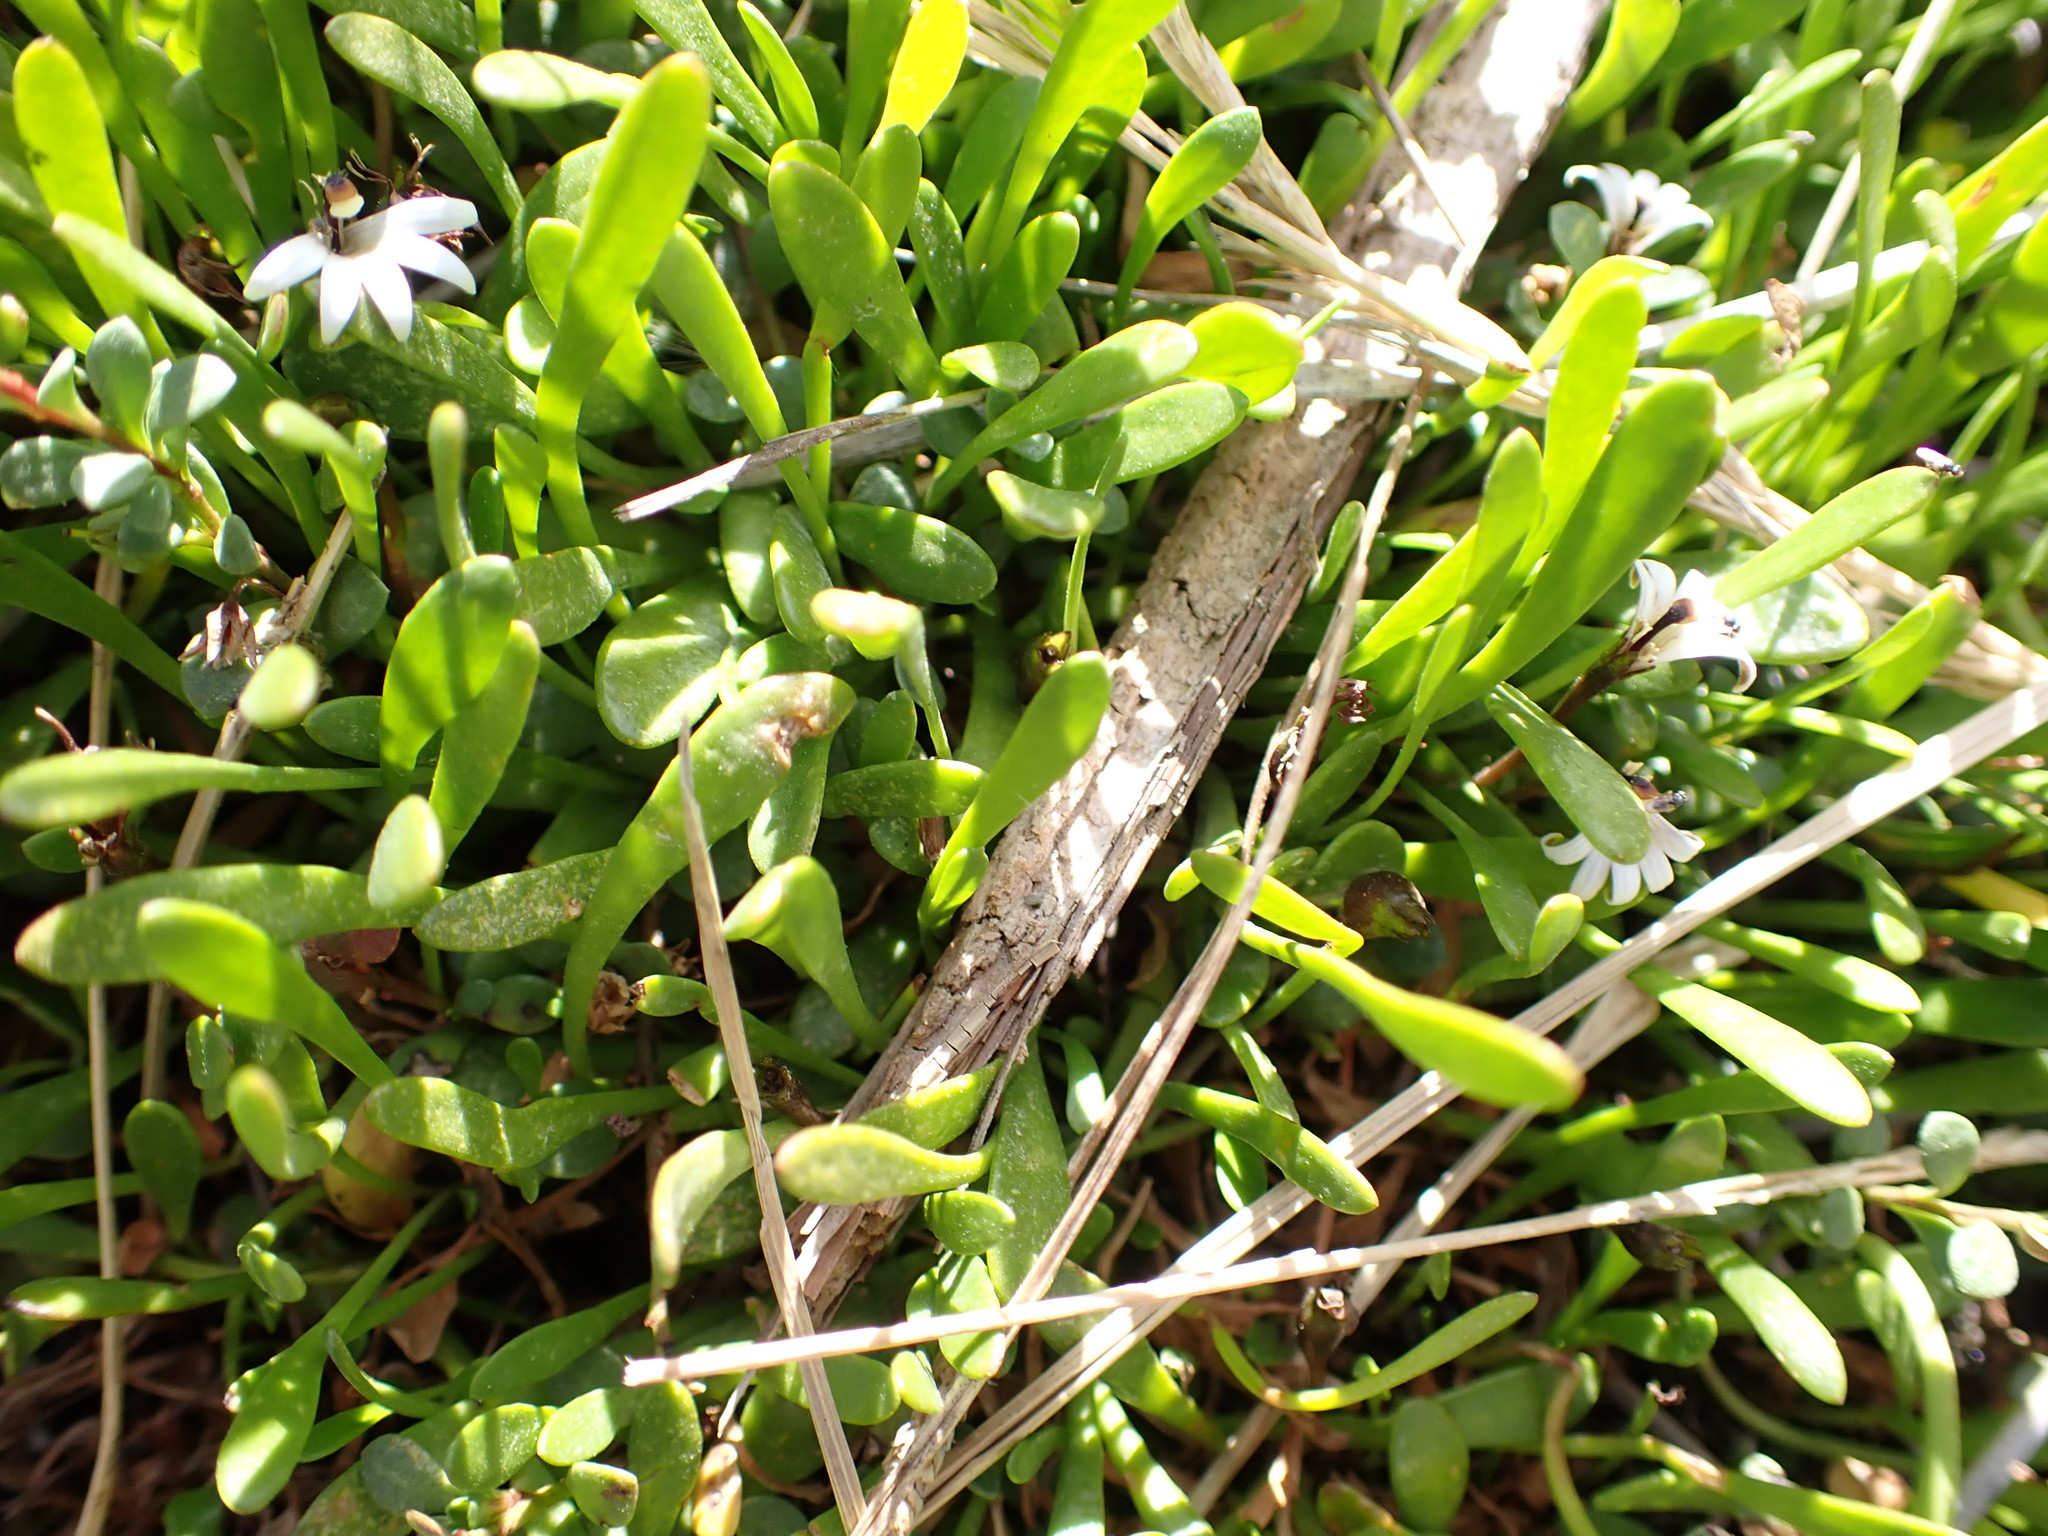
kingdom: Plantae
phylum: Tracheophyta
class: Magnoliopsida
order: Asterales
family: Goodeniaceae
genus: Goodenia
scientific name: Goodenia radicans
